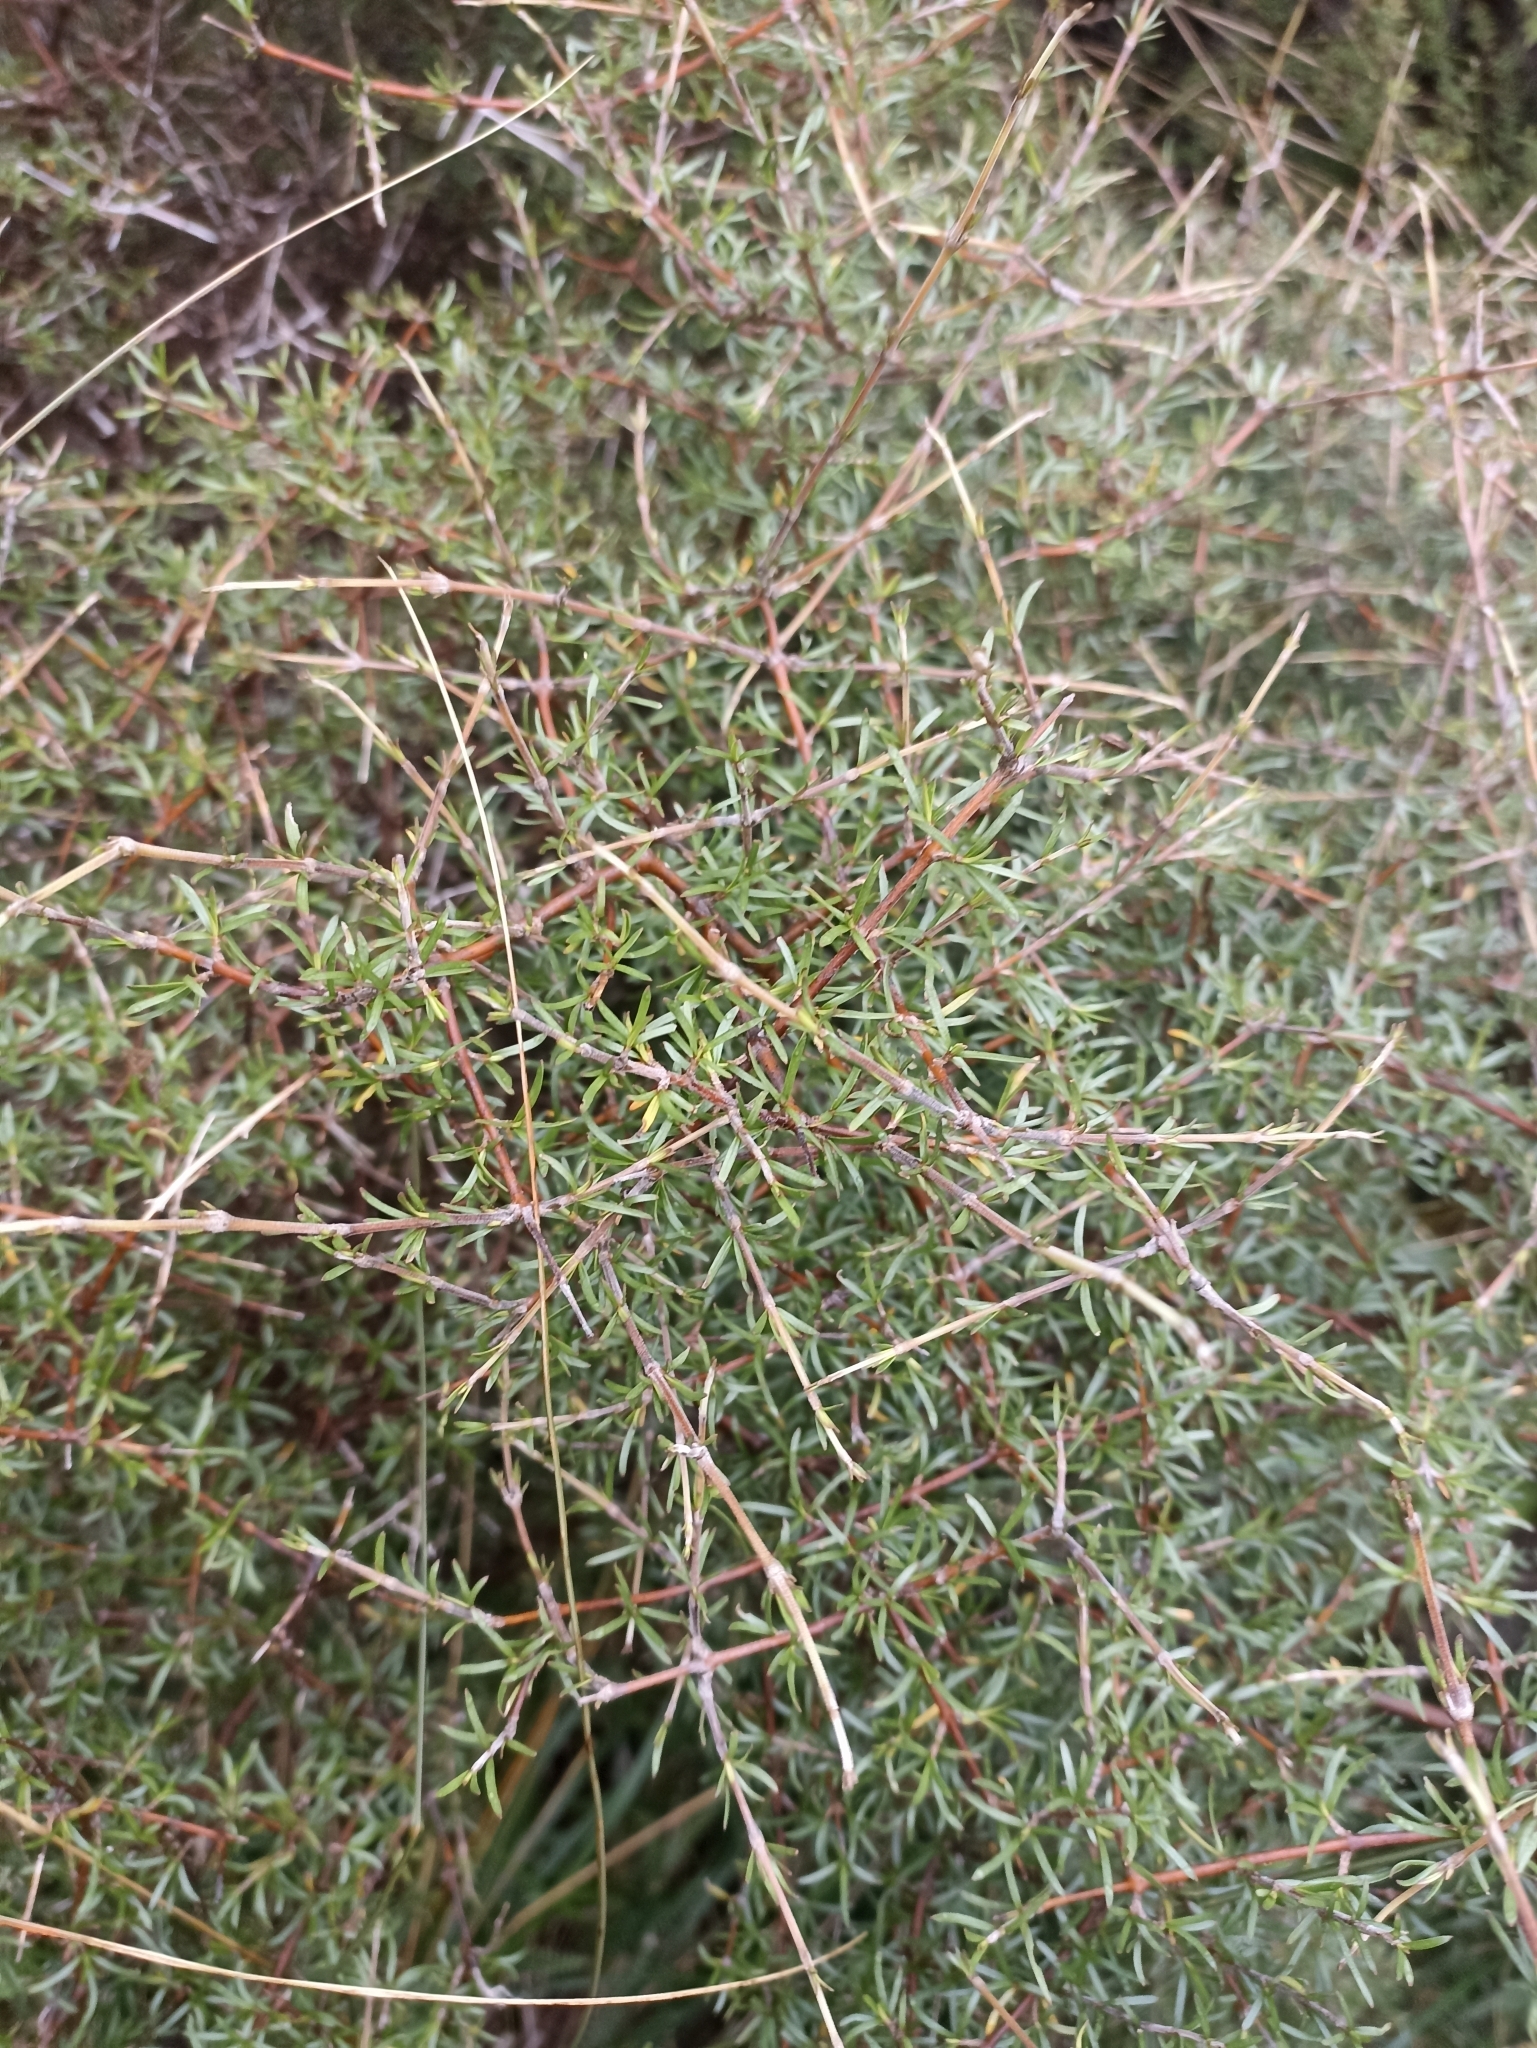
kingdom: Plantae
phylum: Tracheophyta
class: Magnoliopsida
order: Gentianales
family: Rubiaceae
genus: Coprosma
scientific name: Coprosma rugosa
